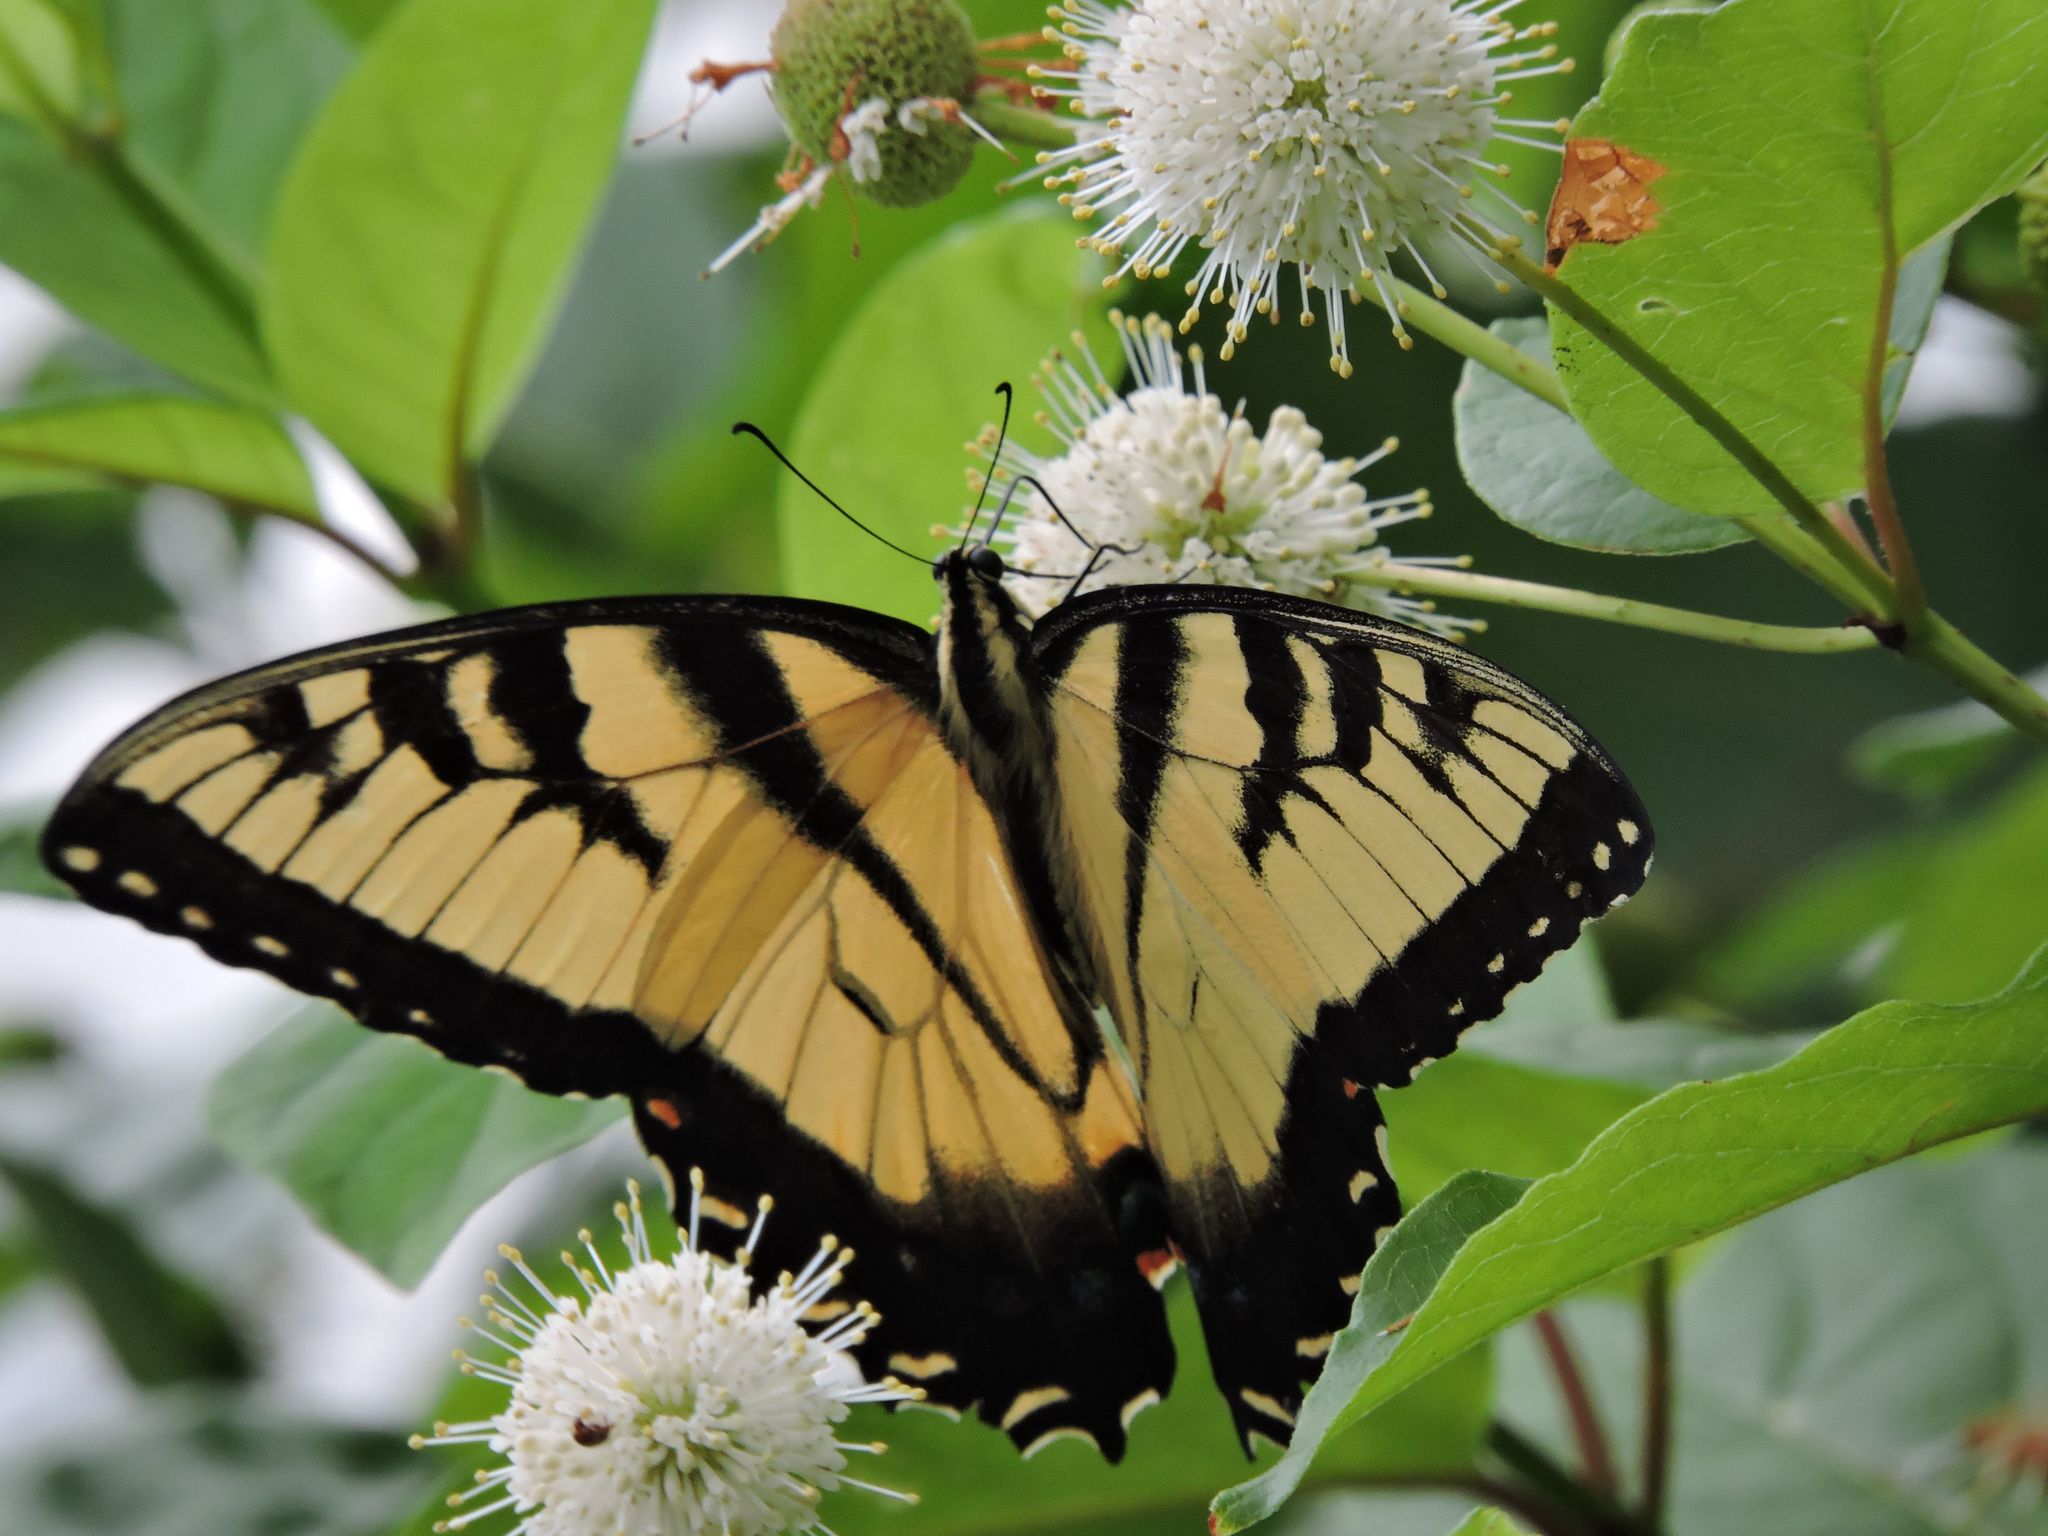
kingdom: Animalia
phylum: Arthropoda
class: Insecta
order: Lepidoptera
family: Papilionidae
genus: Papilio
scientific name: Papilio glaucus
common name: Tiger swallowtail
